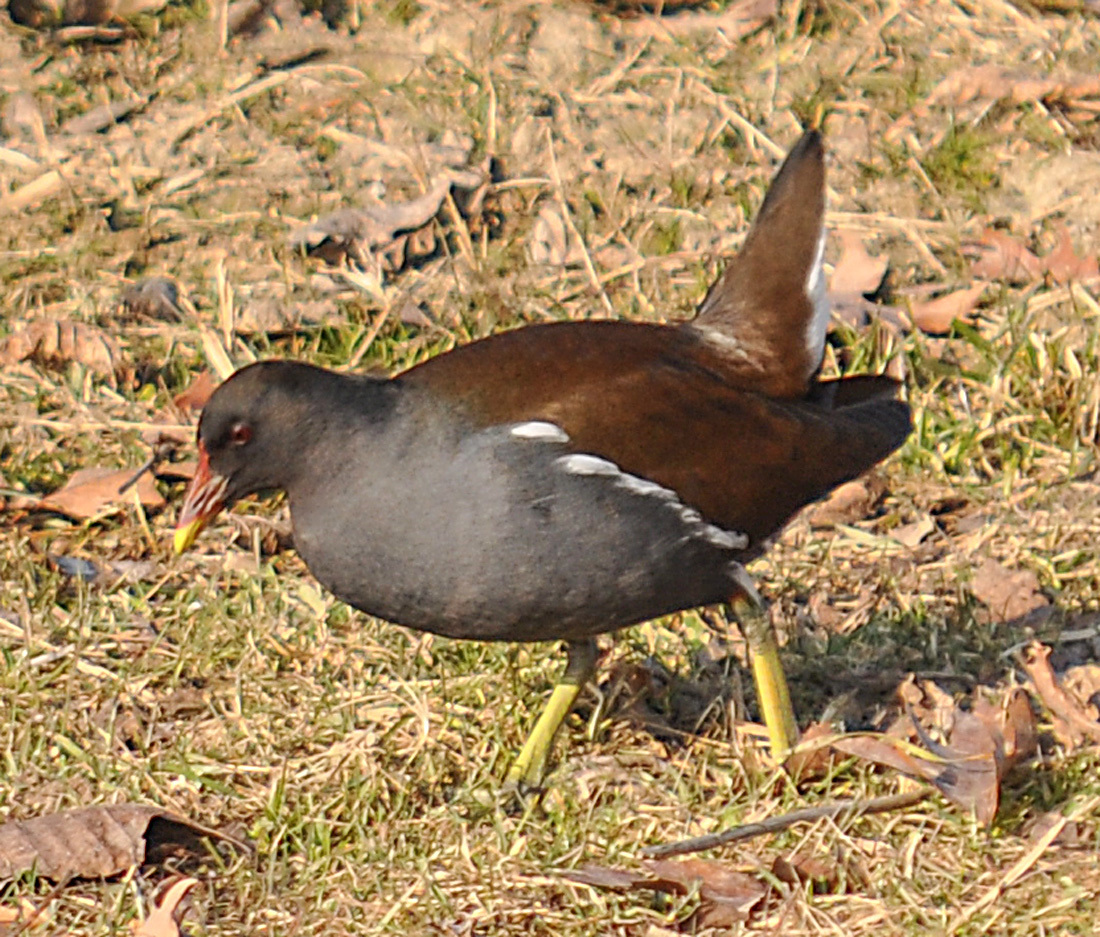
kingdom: Animalia
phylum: Chordata
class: Aves
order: Gruiformes
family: Rallidae
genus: Gallinula
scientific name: Gallinula chloropus
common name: Common moorhen
